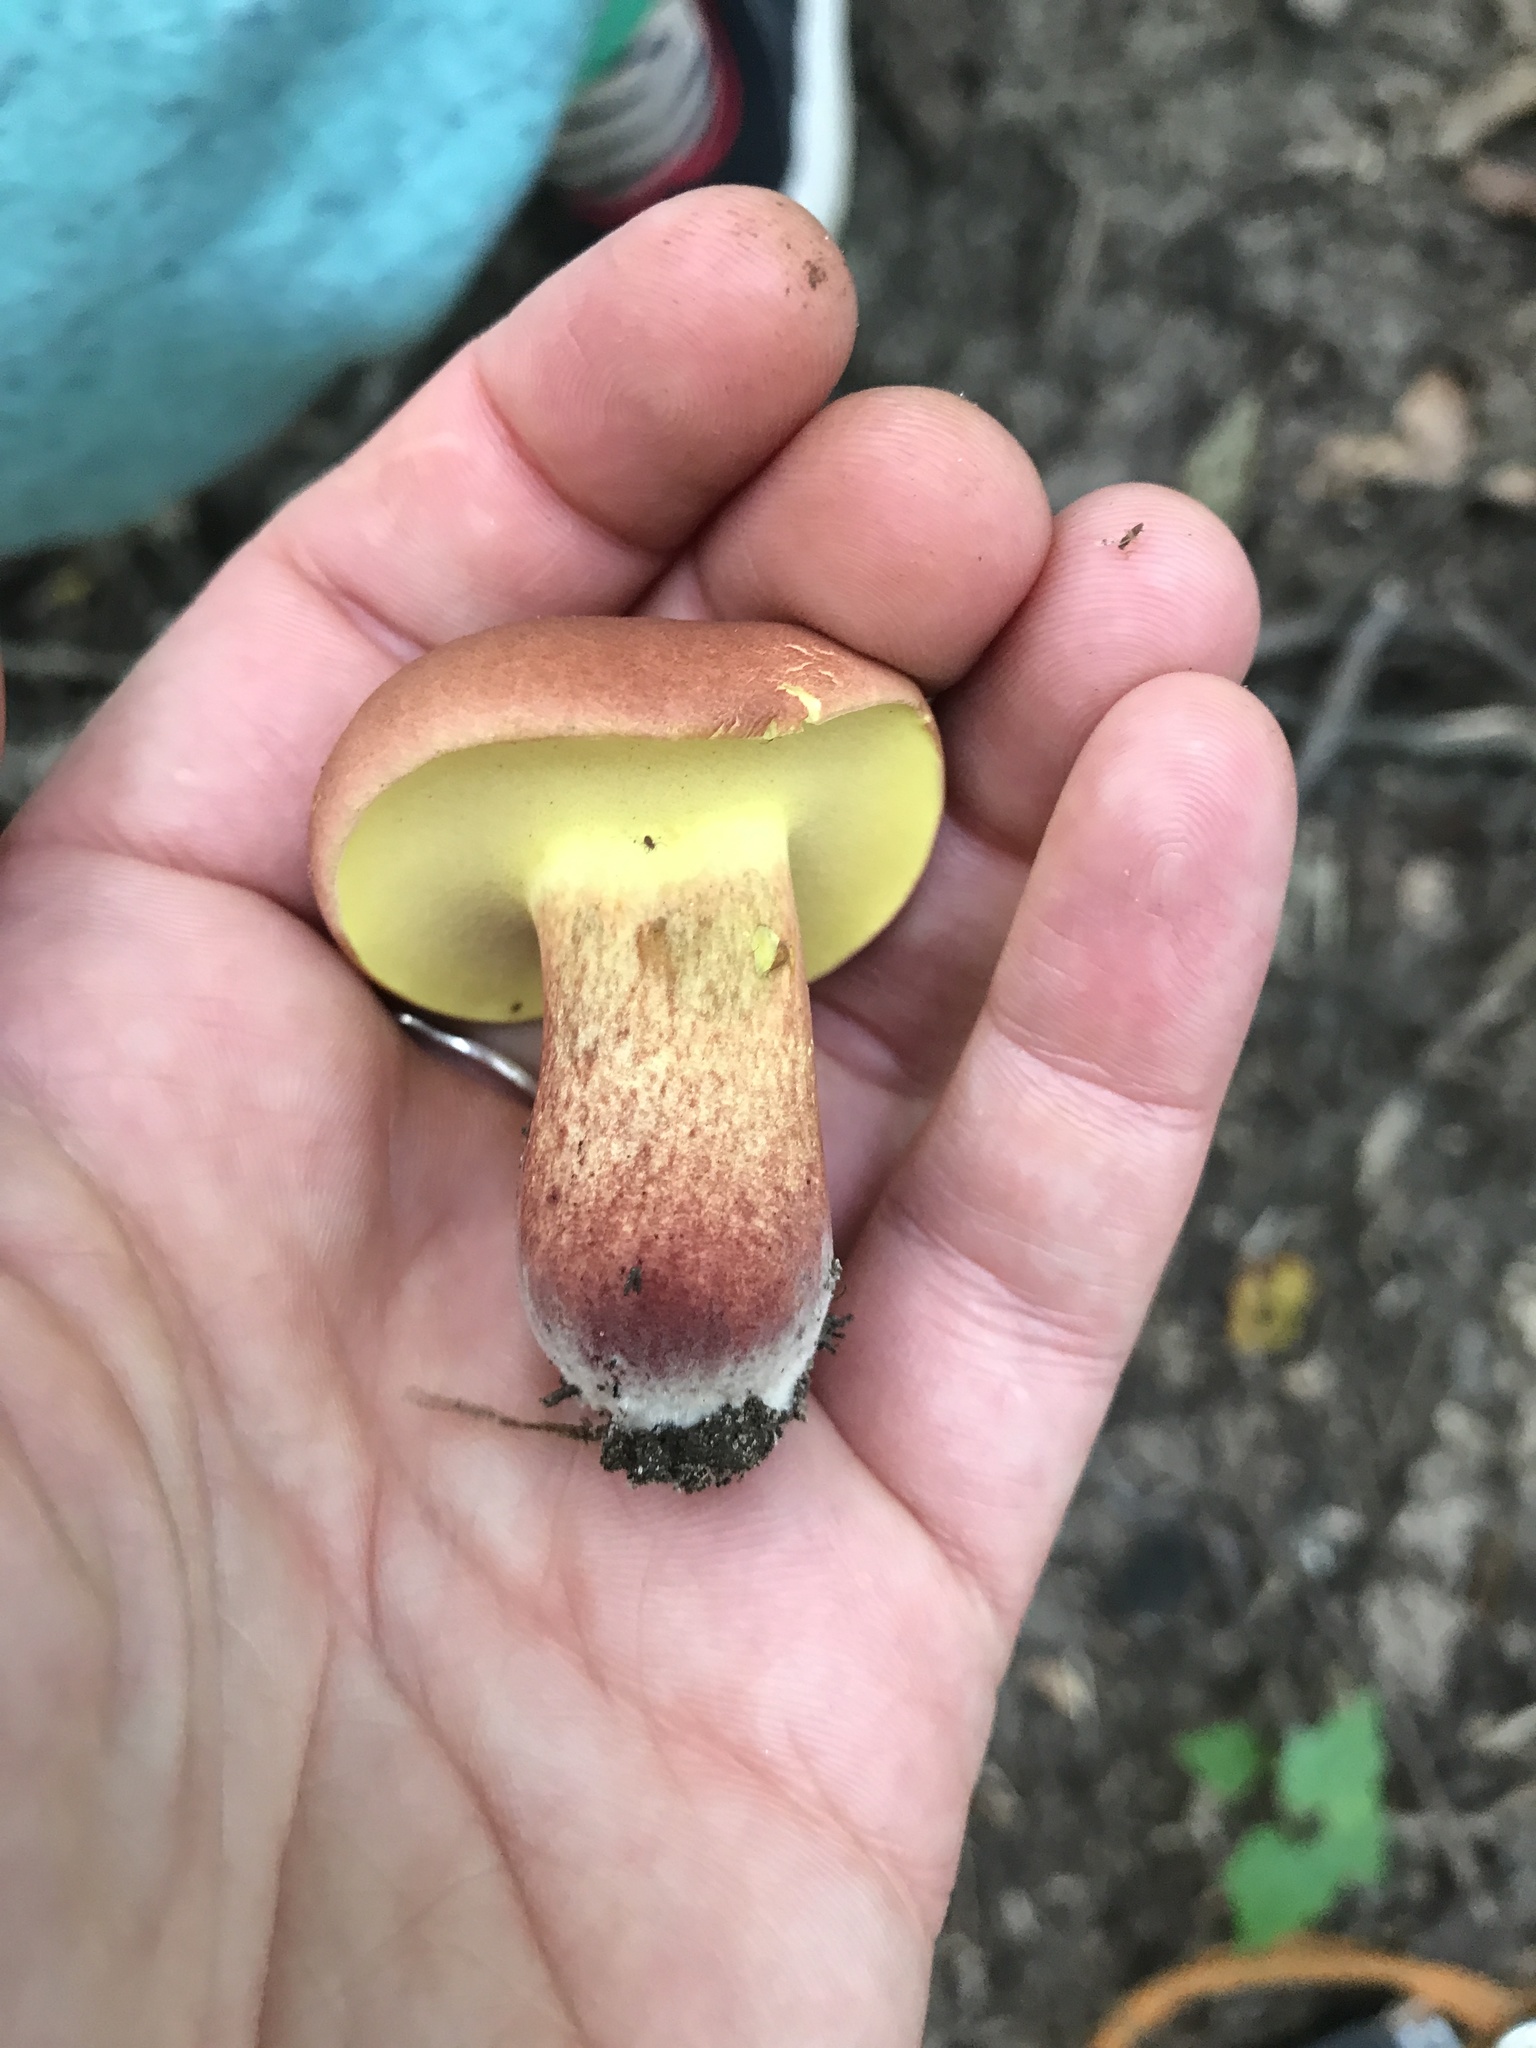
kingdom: Fungi
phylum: Basidiomycota
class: Agaricomycetes
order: Boletales
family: Boletaceae
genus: Baorangia
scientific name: Baorangia bicolor
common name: Two-colored bolete
